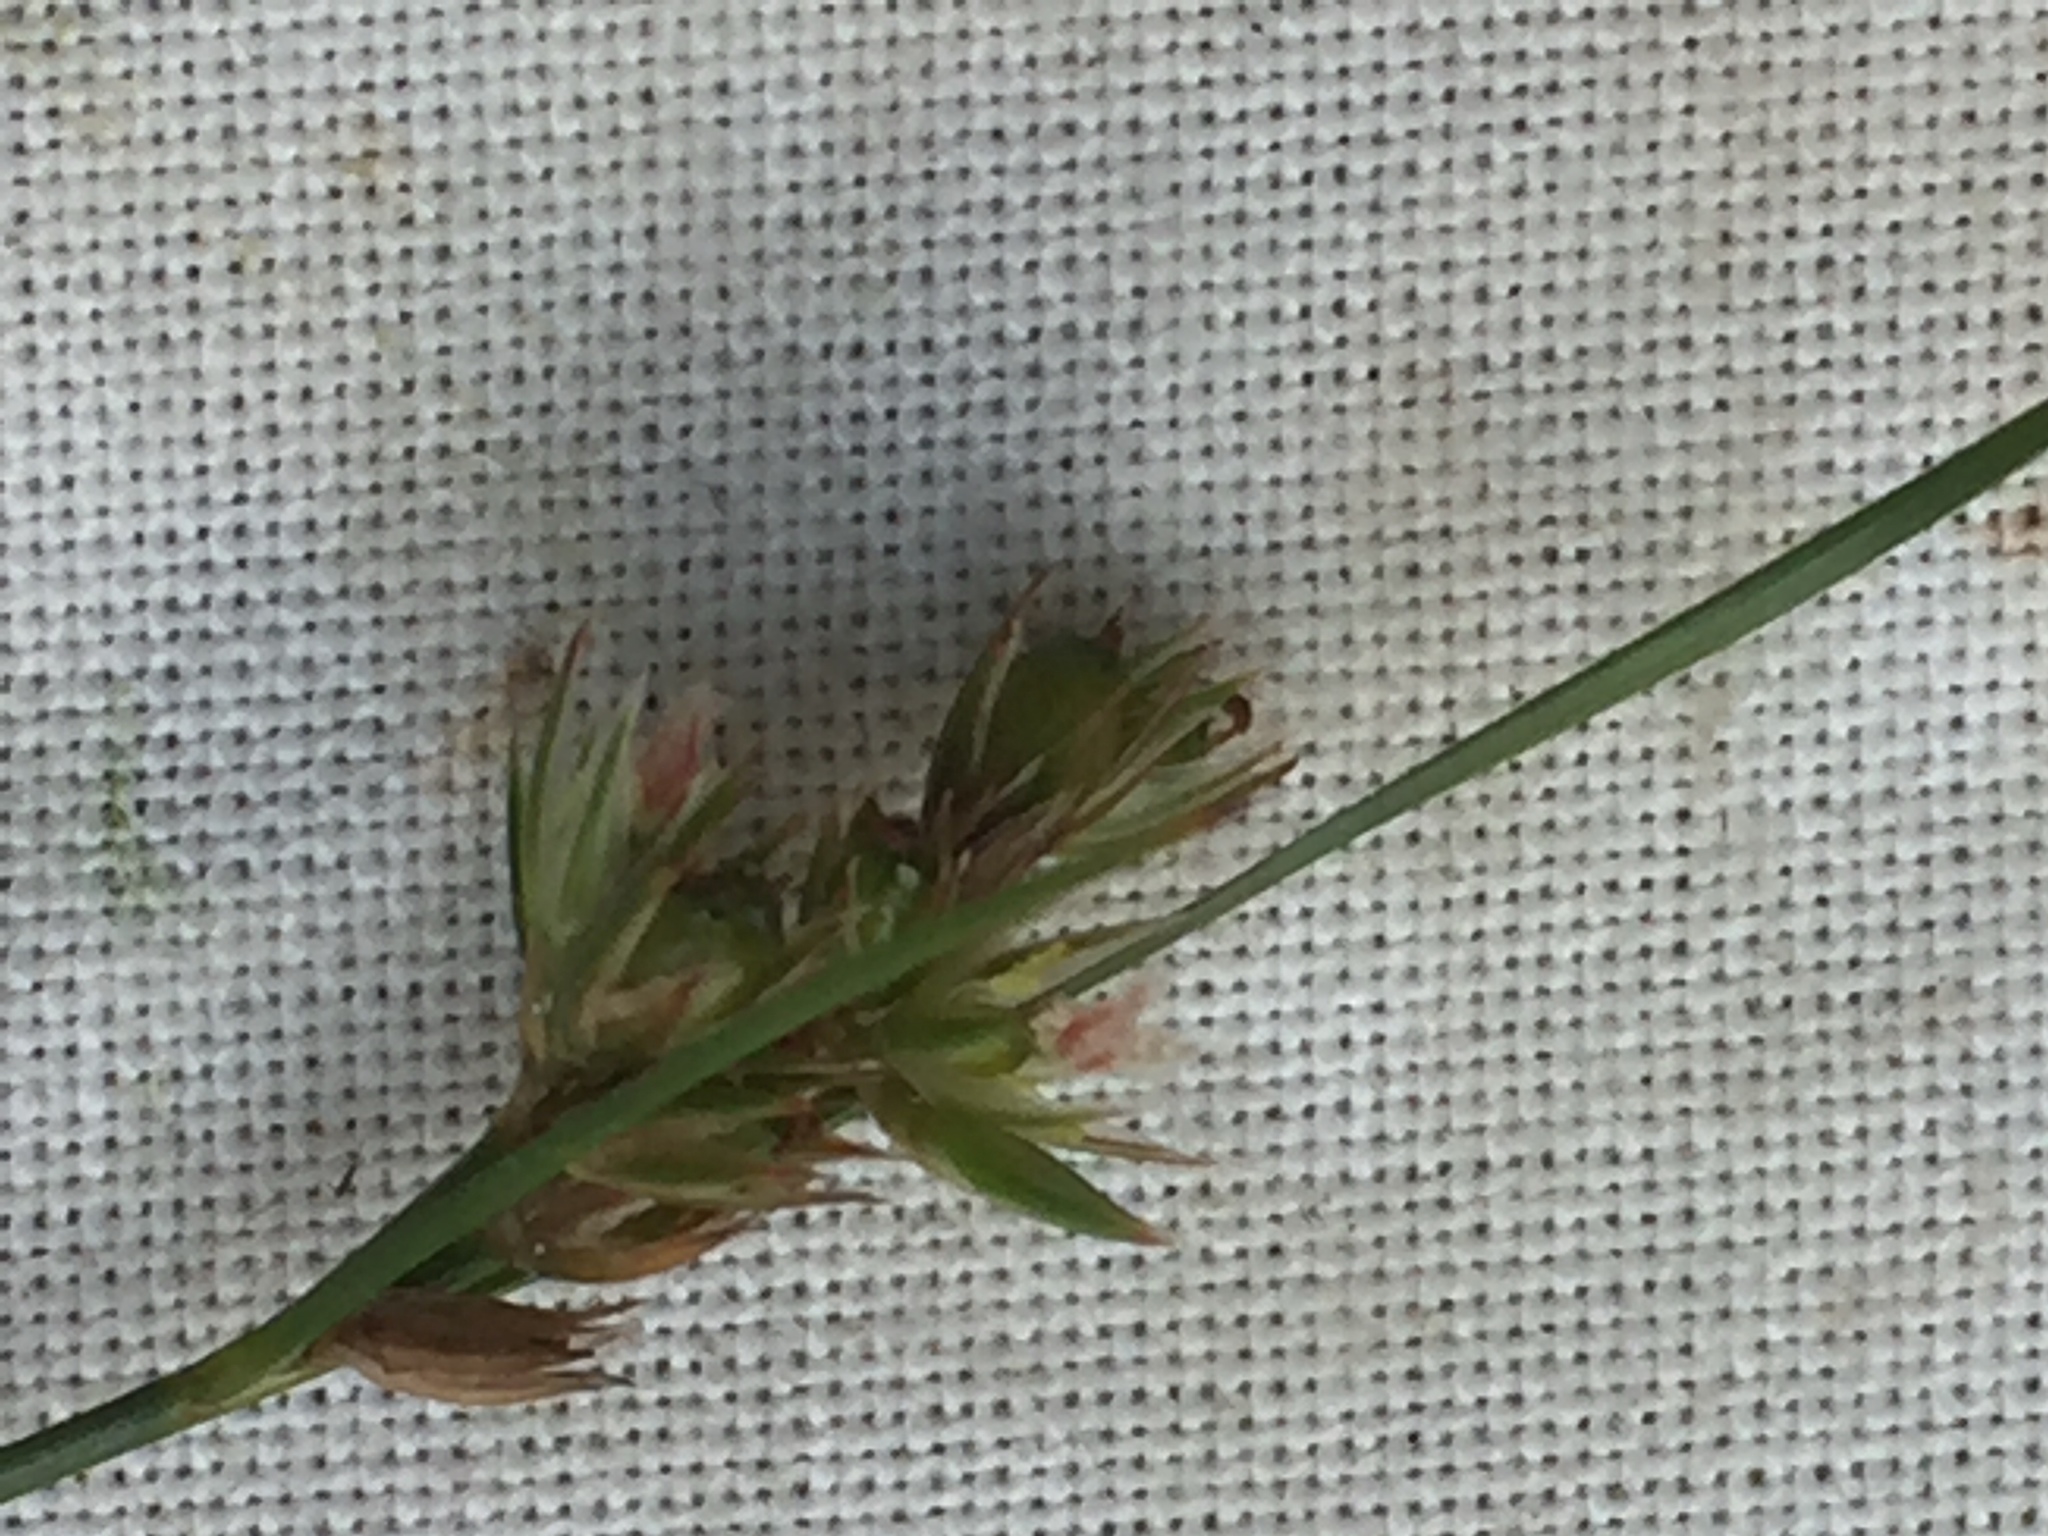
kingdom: Animalia
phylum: Arthropoda
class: Insecta
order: Hemiptera
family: Liviidae
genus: Livia
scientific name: Livia junci
